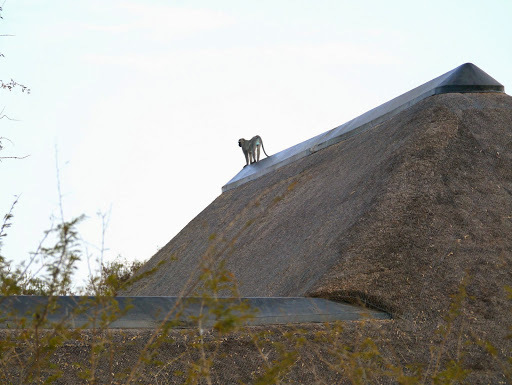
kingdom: Animalia
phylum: Chordata
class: Mammalia
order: Primates
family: Cercopithecidae
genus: Chlorocebus
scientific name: Chlorocebus pygerythrus
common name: Vervet monkey
